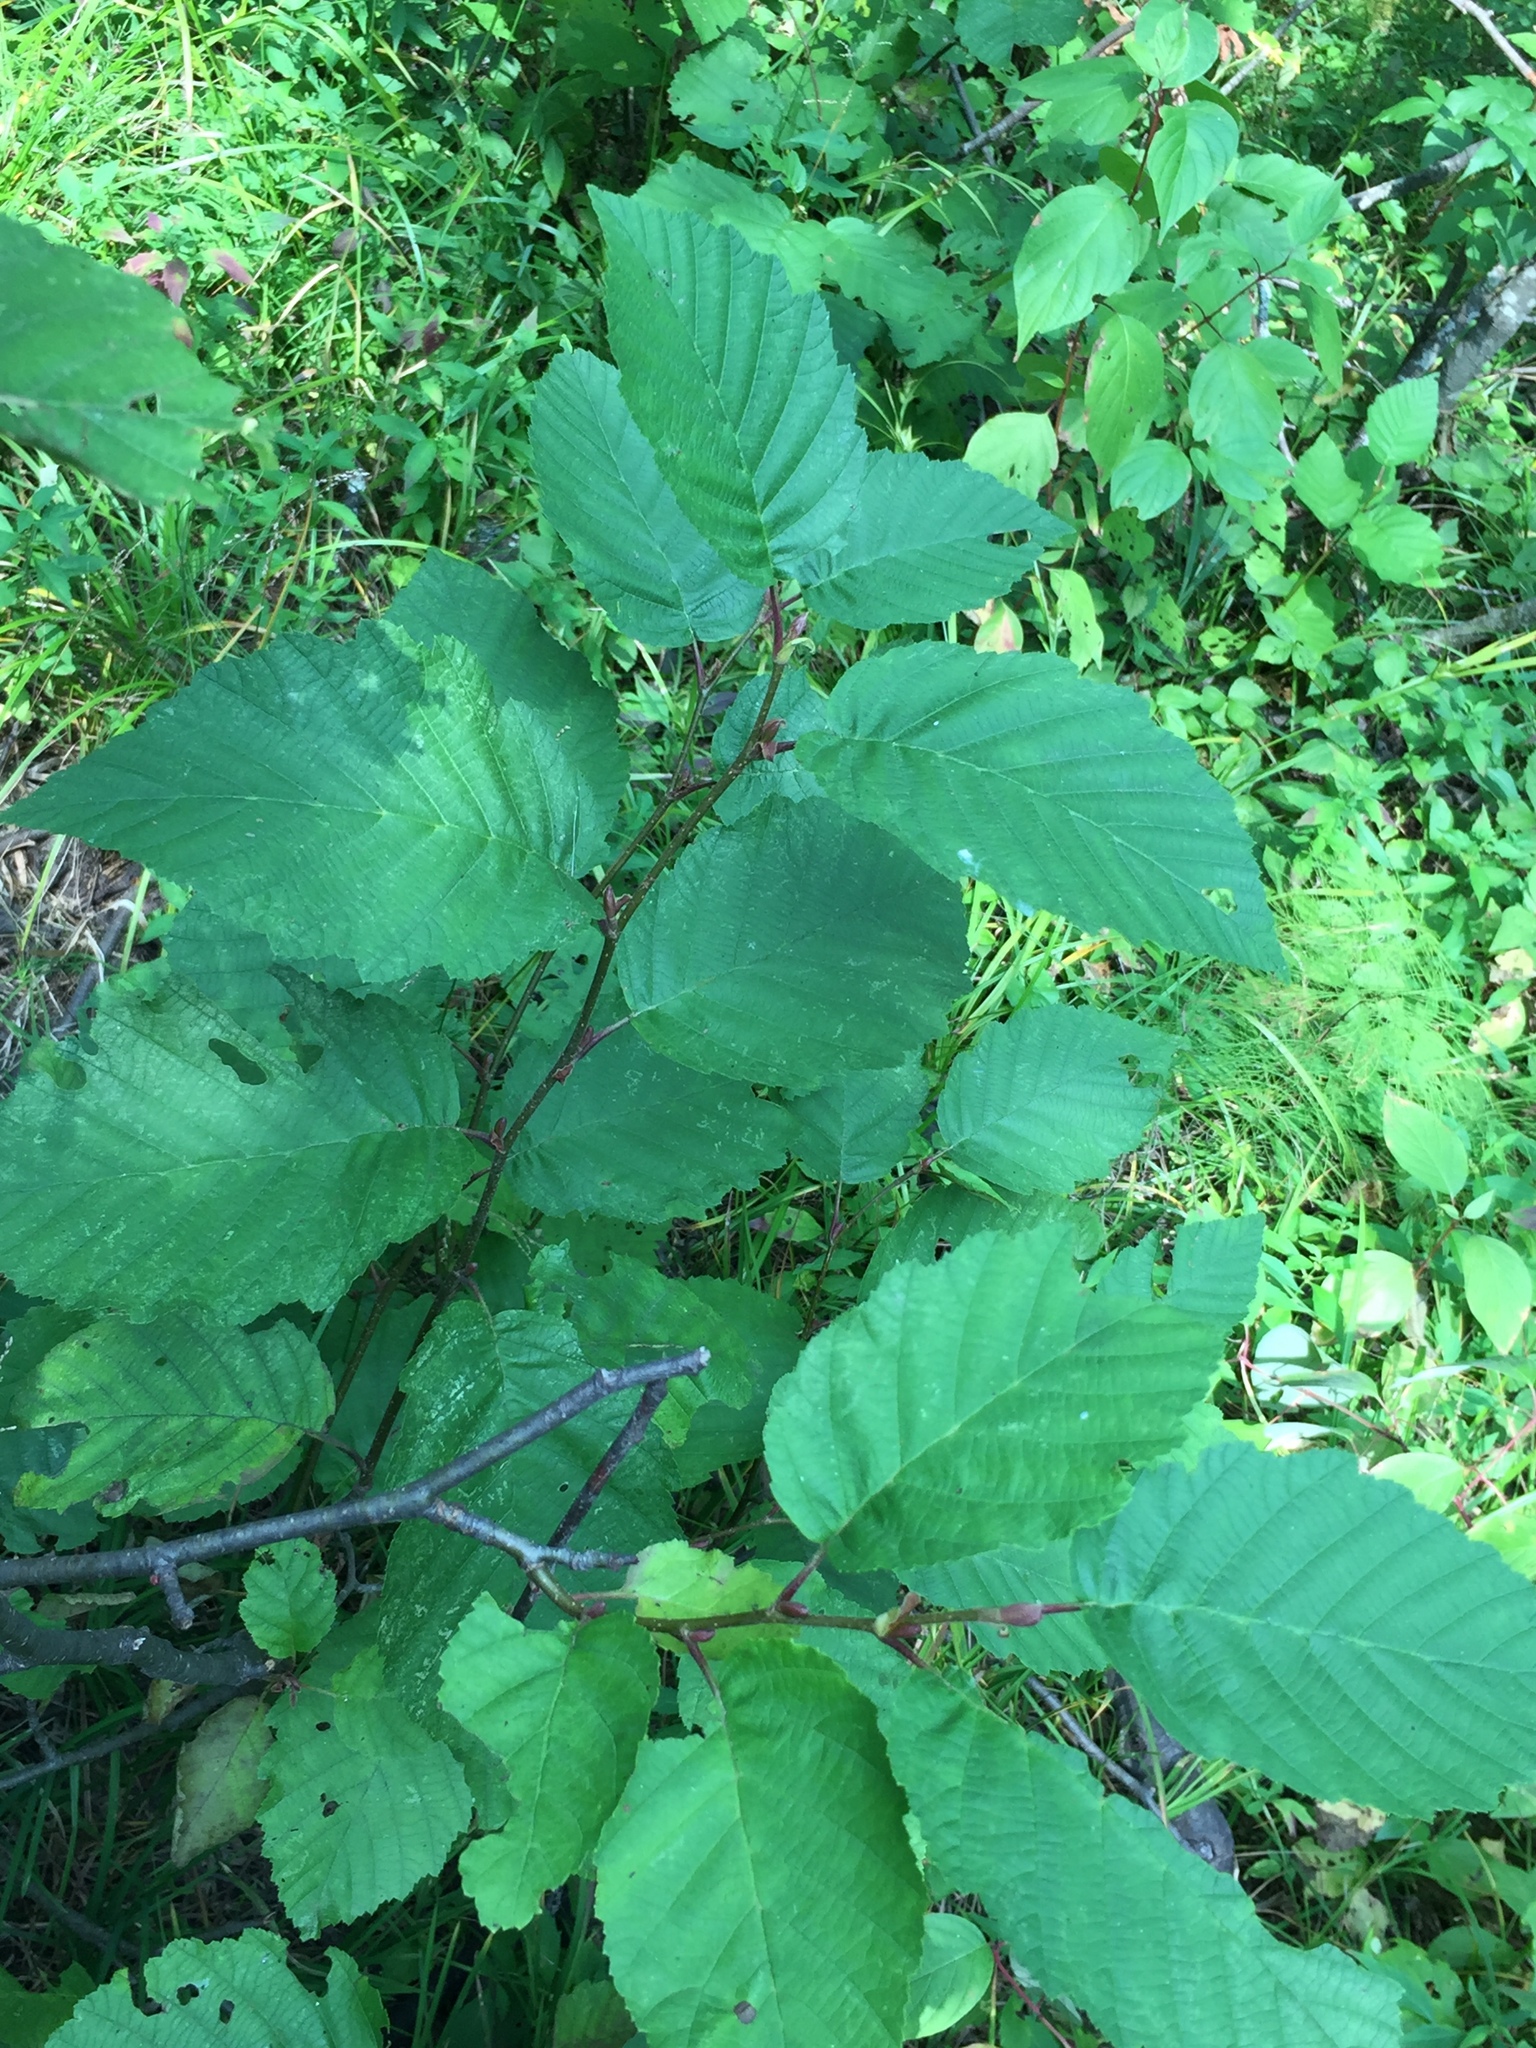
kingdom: Plantae
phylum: Tracheophyta
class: Magnoliopsida
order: Fagales
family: Betulaceae
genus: Alnus
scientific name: Alnus alnobetula
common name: Green alder
